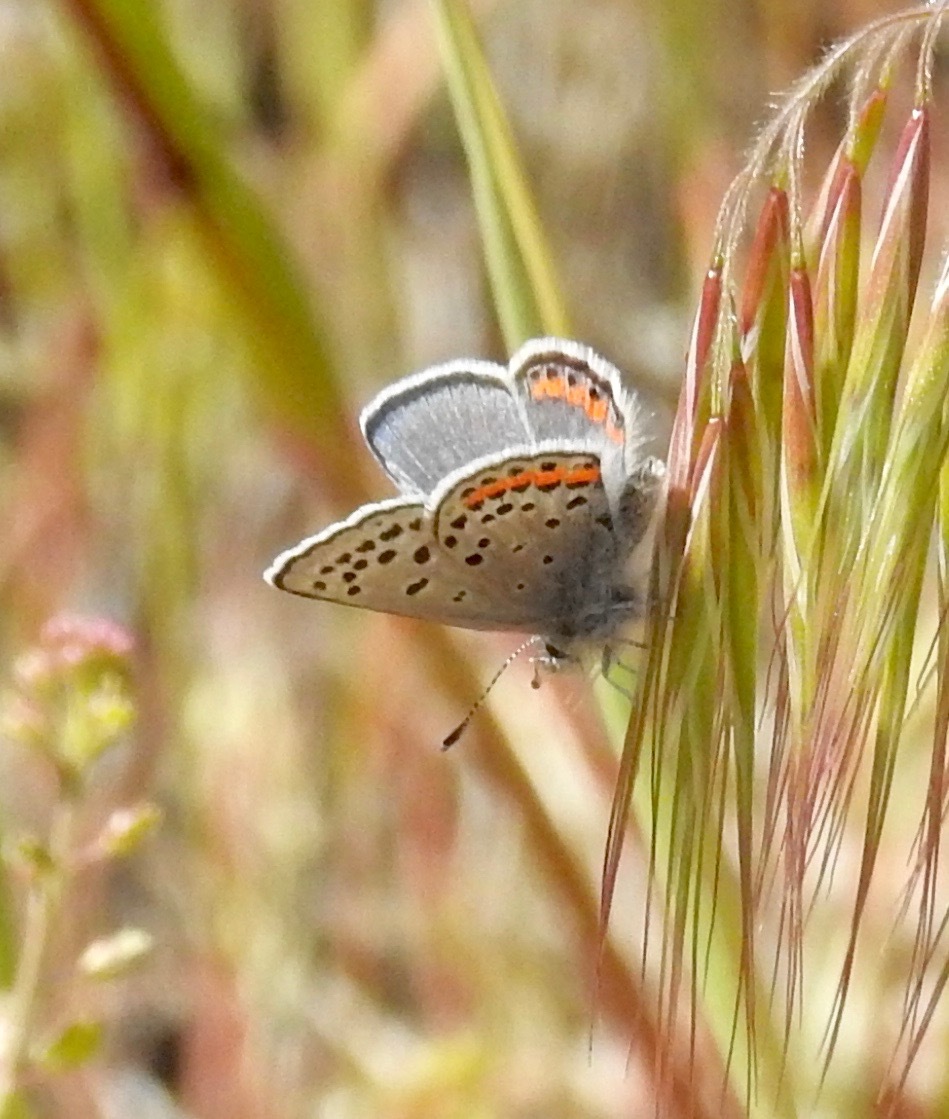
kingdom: Animalia
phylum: Arthropoda
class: Insecta
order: Lepidoptera
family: Lycaenidae
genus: Icaricia
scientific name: Icaricia acmon
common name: Acmon blue
